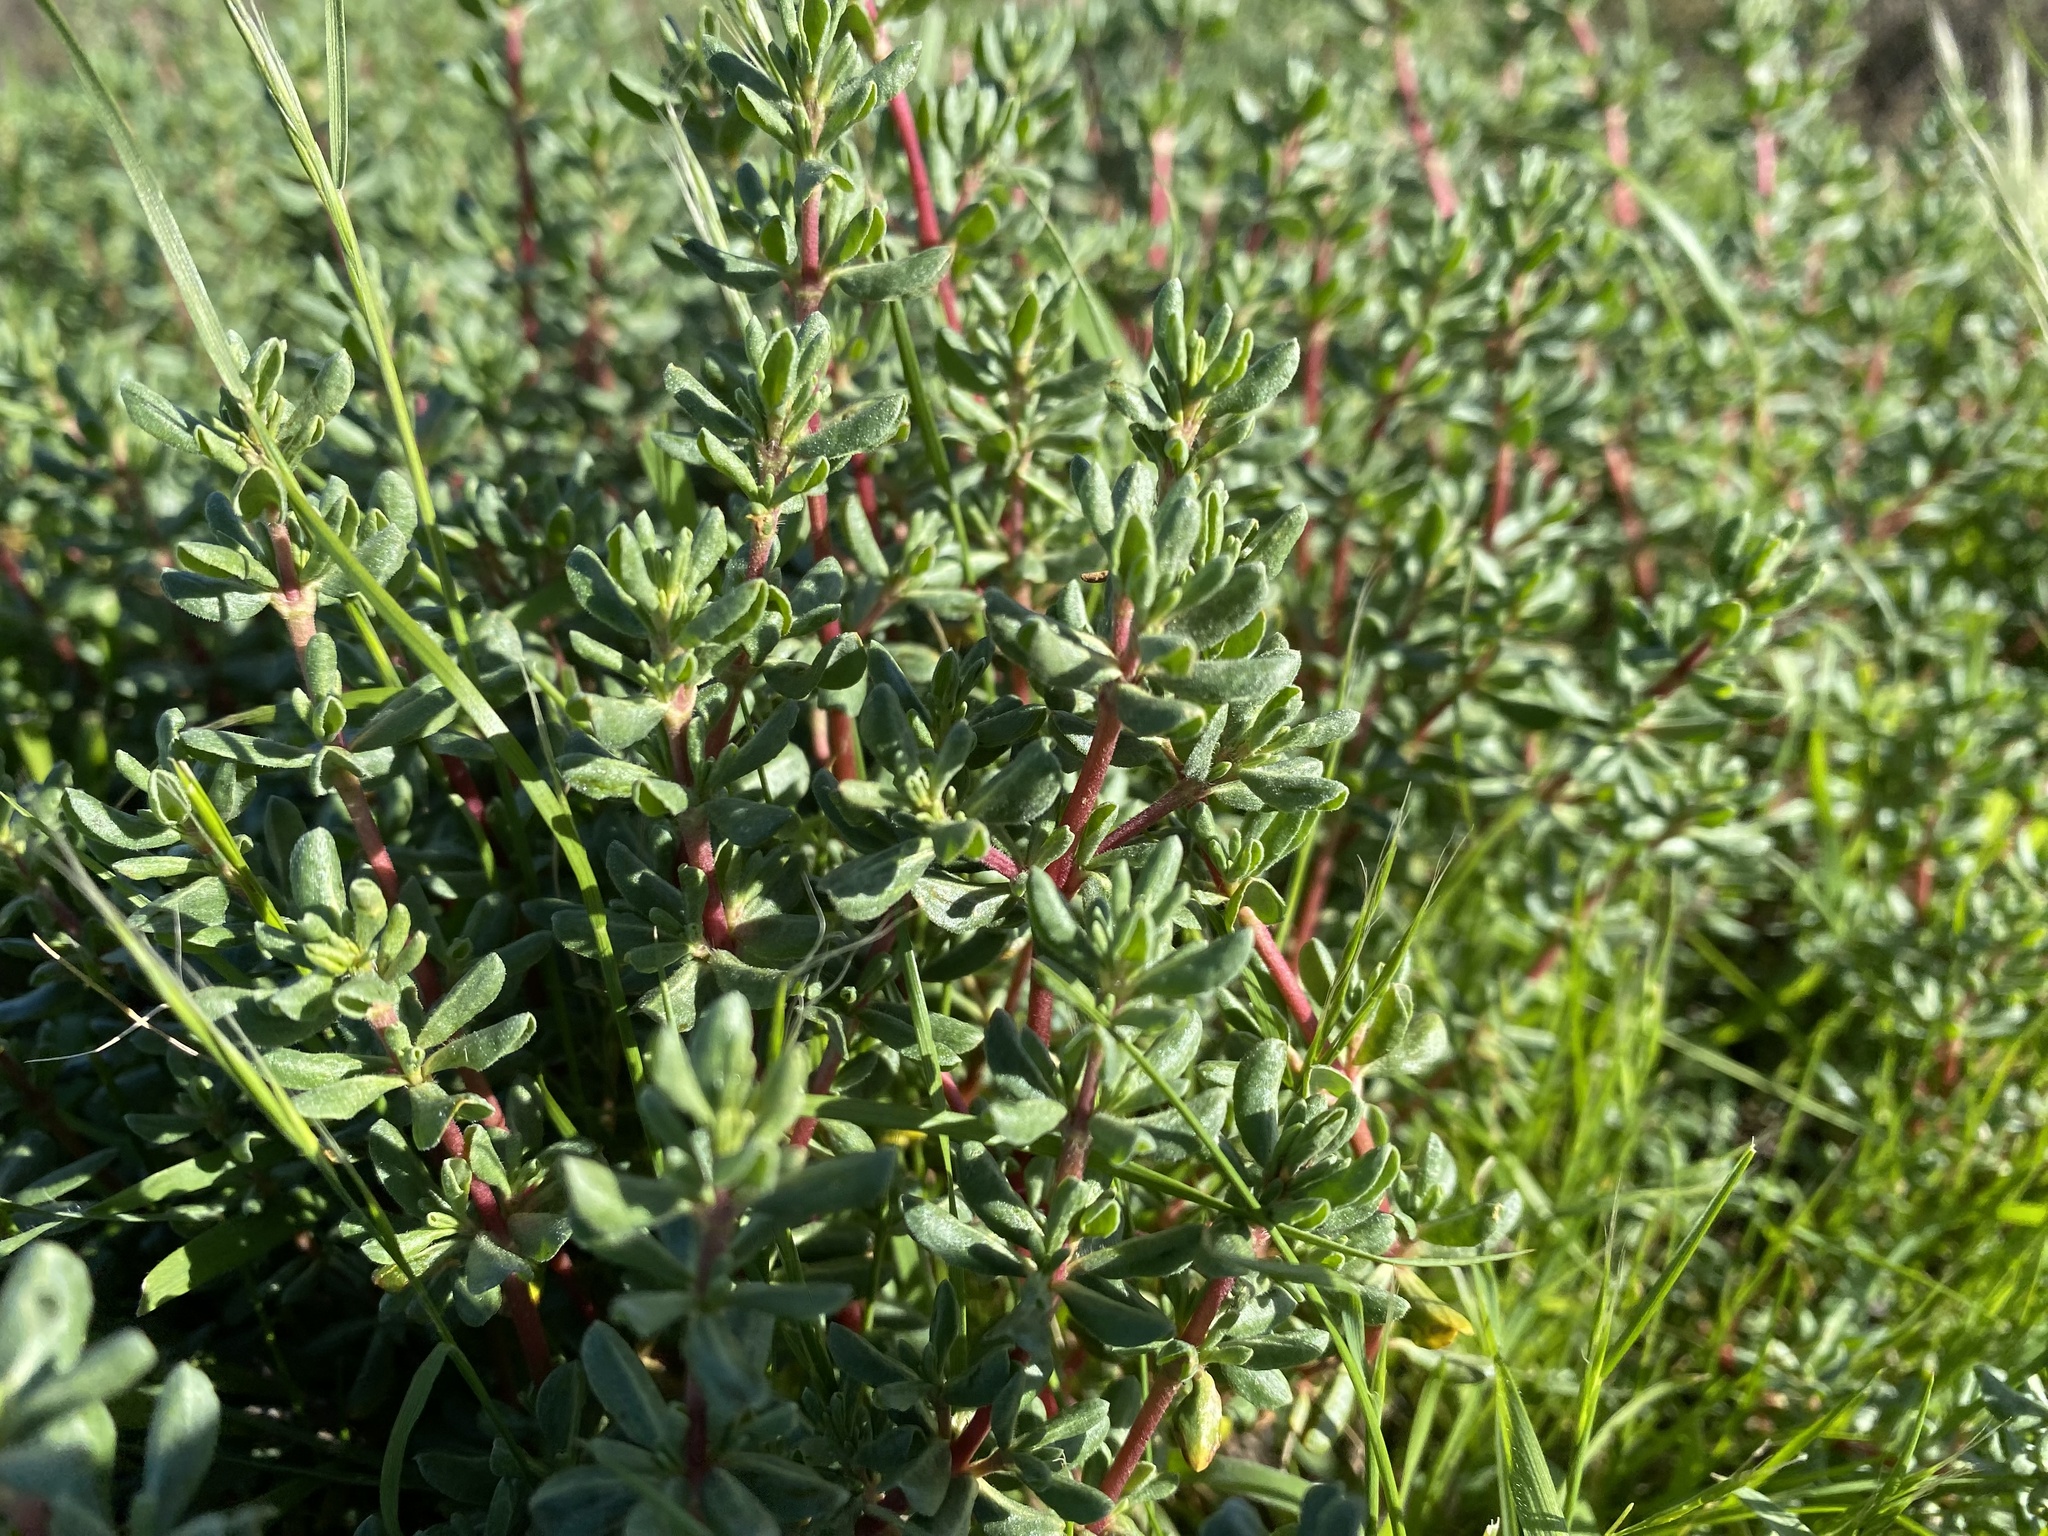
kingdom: Plantae
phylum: Tracheophyta
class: Magnoliopsida
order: Caryophyllales
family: Frankeniaceae
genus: Frankenia
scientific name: Frankenia salina
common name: Alkali seaheath
